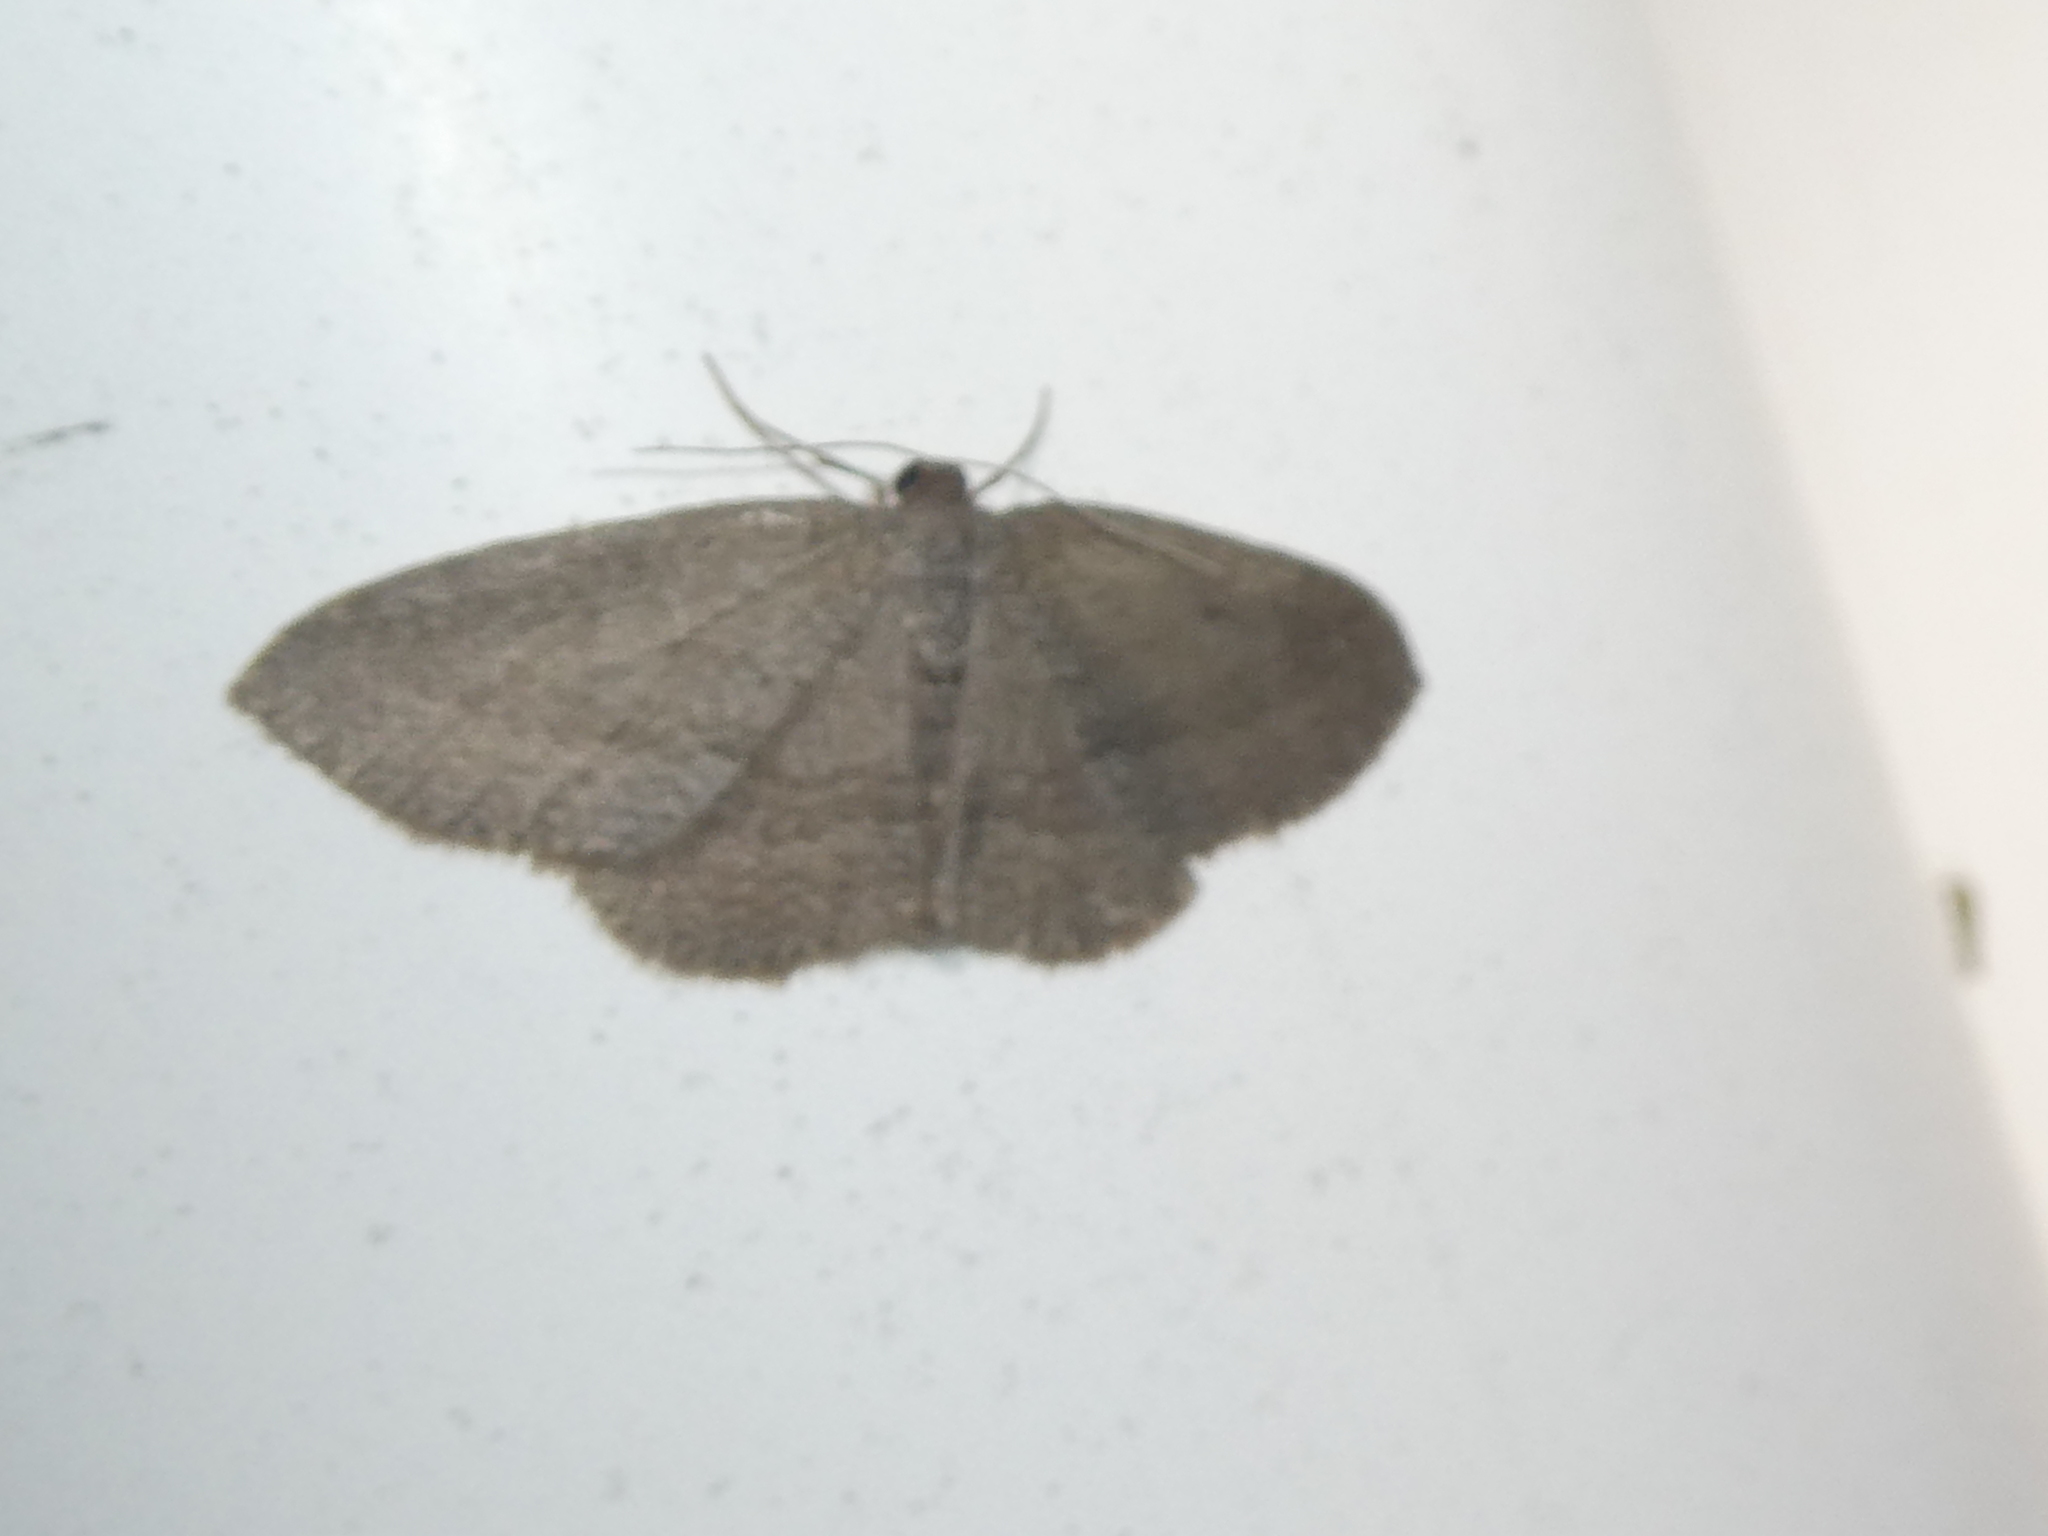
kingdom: Animalia
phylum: Arthropoda
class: Insecta
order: Lepidoptera
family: Geometridae
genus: Poecilasthena
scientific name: Poecilasthena schistaria
